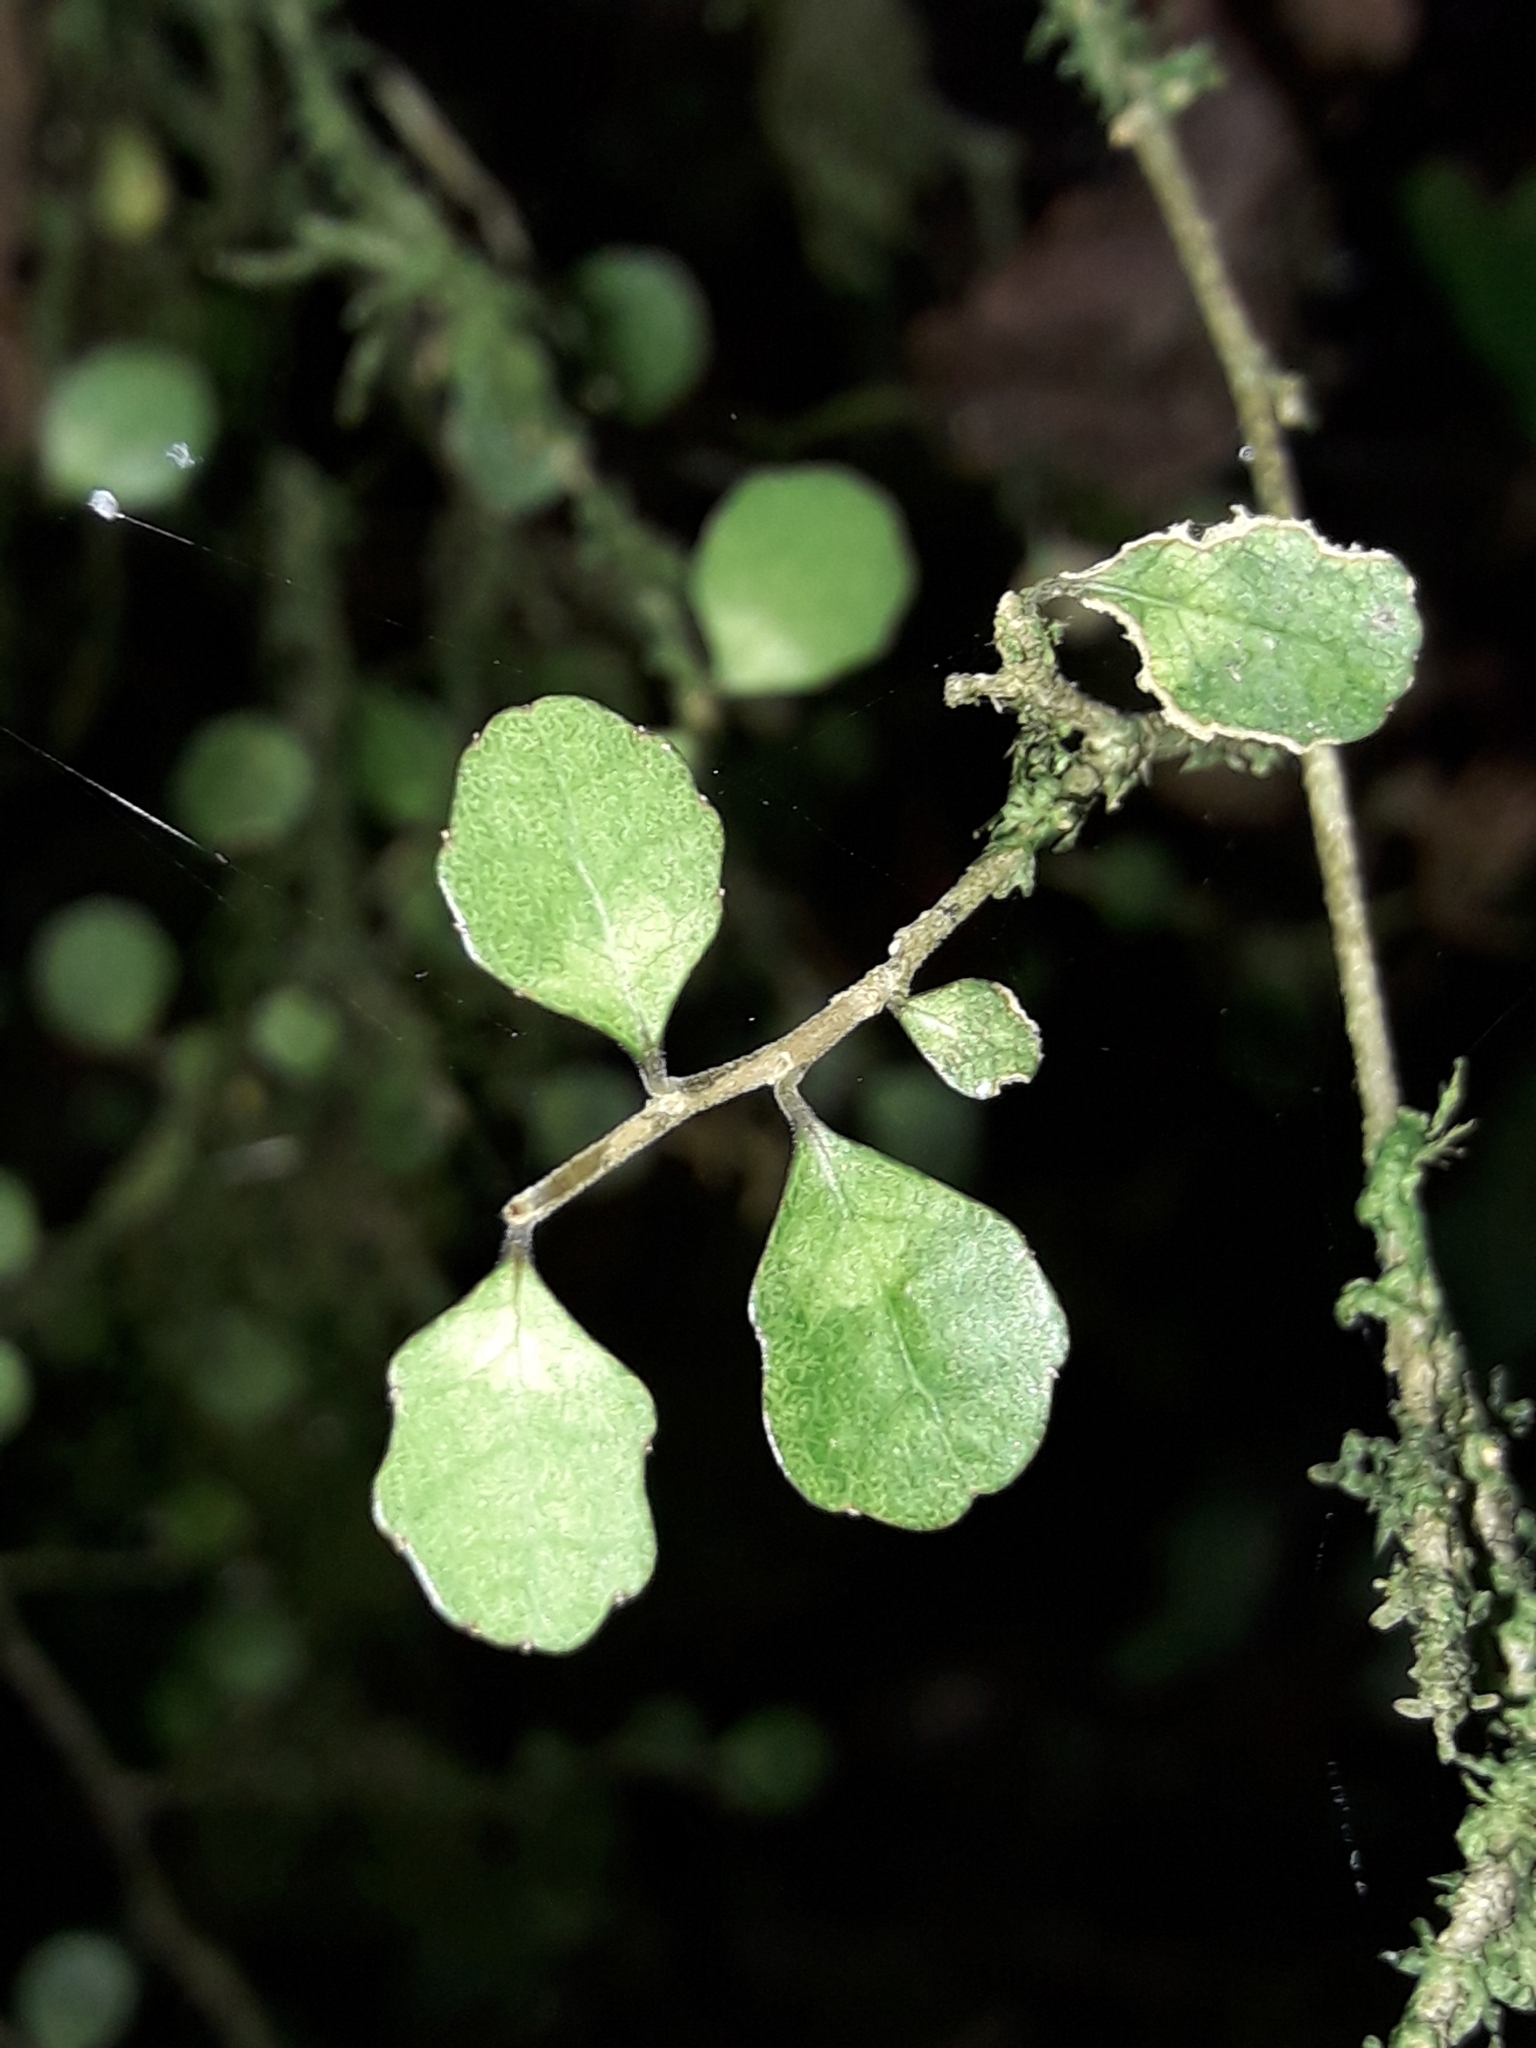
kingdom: Plantae
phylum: Tracheophyta
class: Magnoliopsida
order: Malpighiales
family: Violaceae
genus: Melicytus
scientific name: Melicytus micranthus
